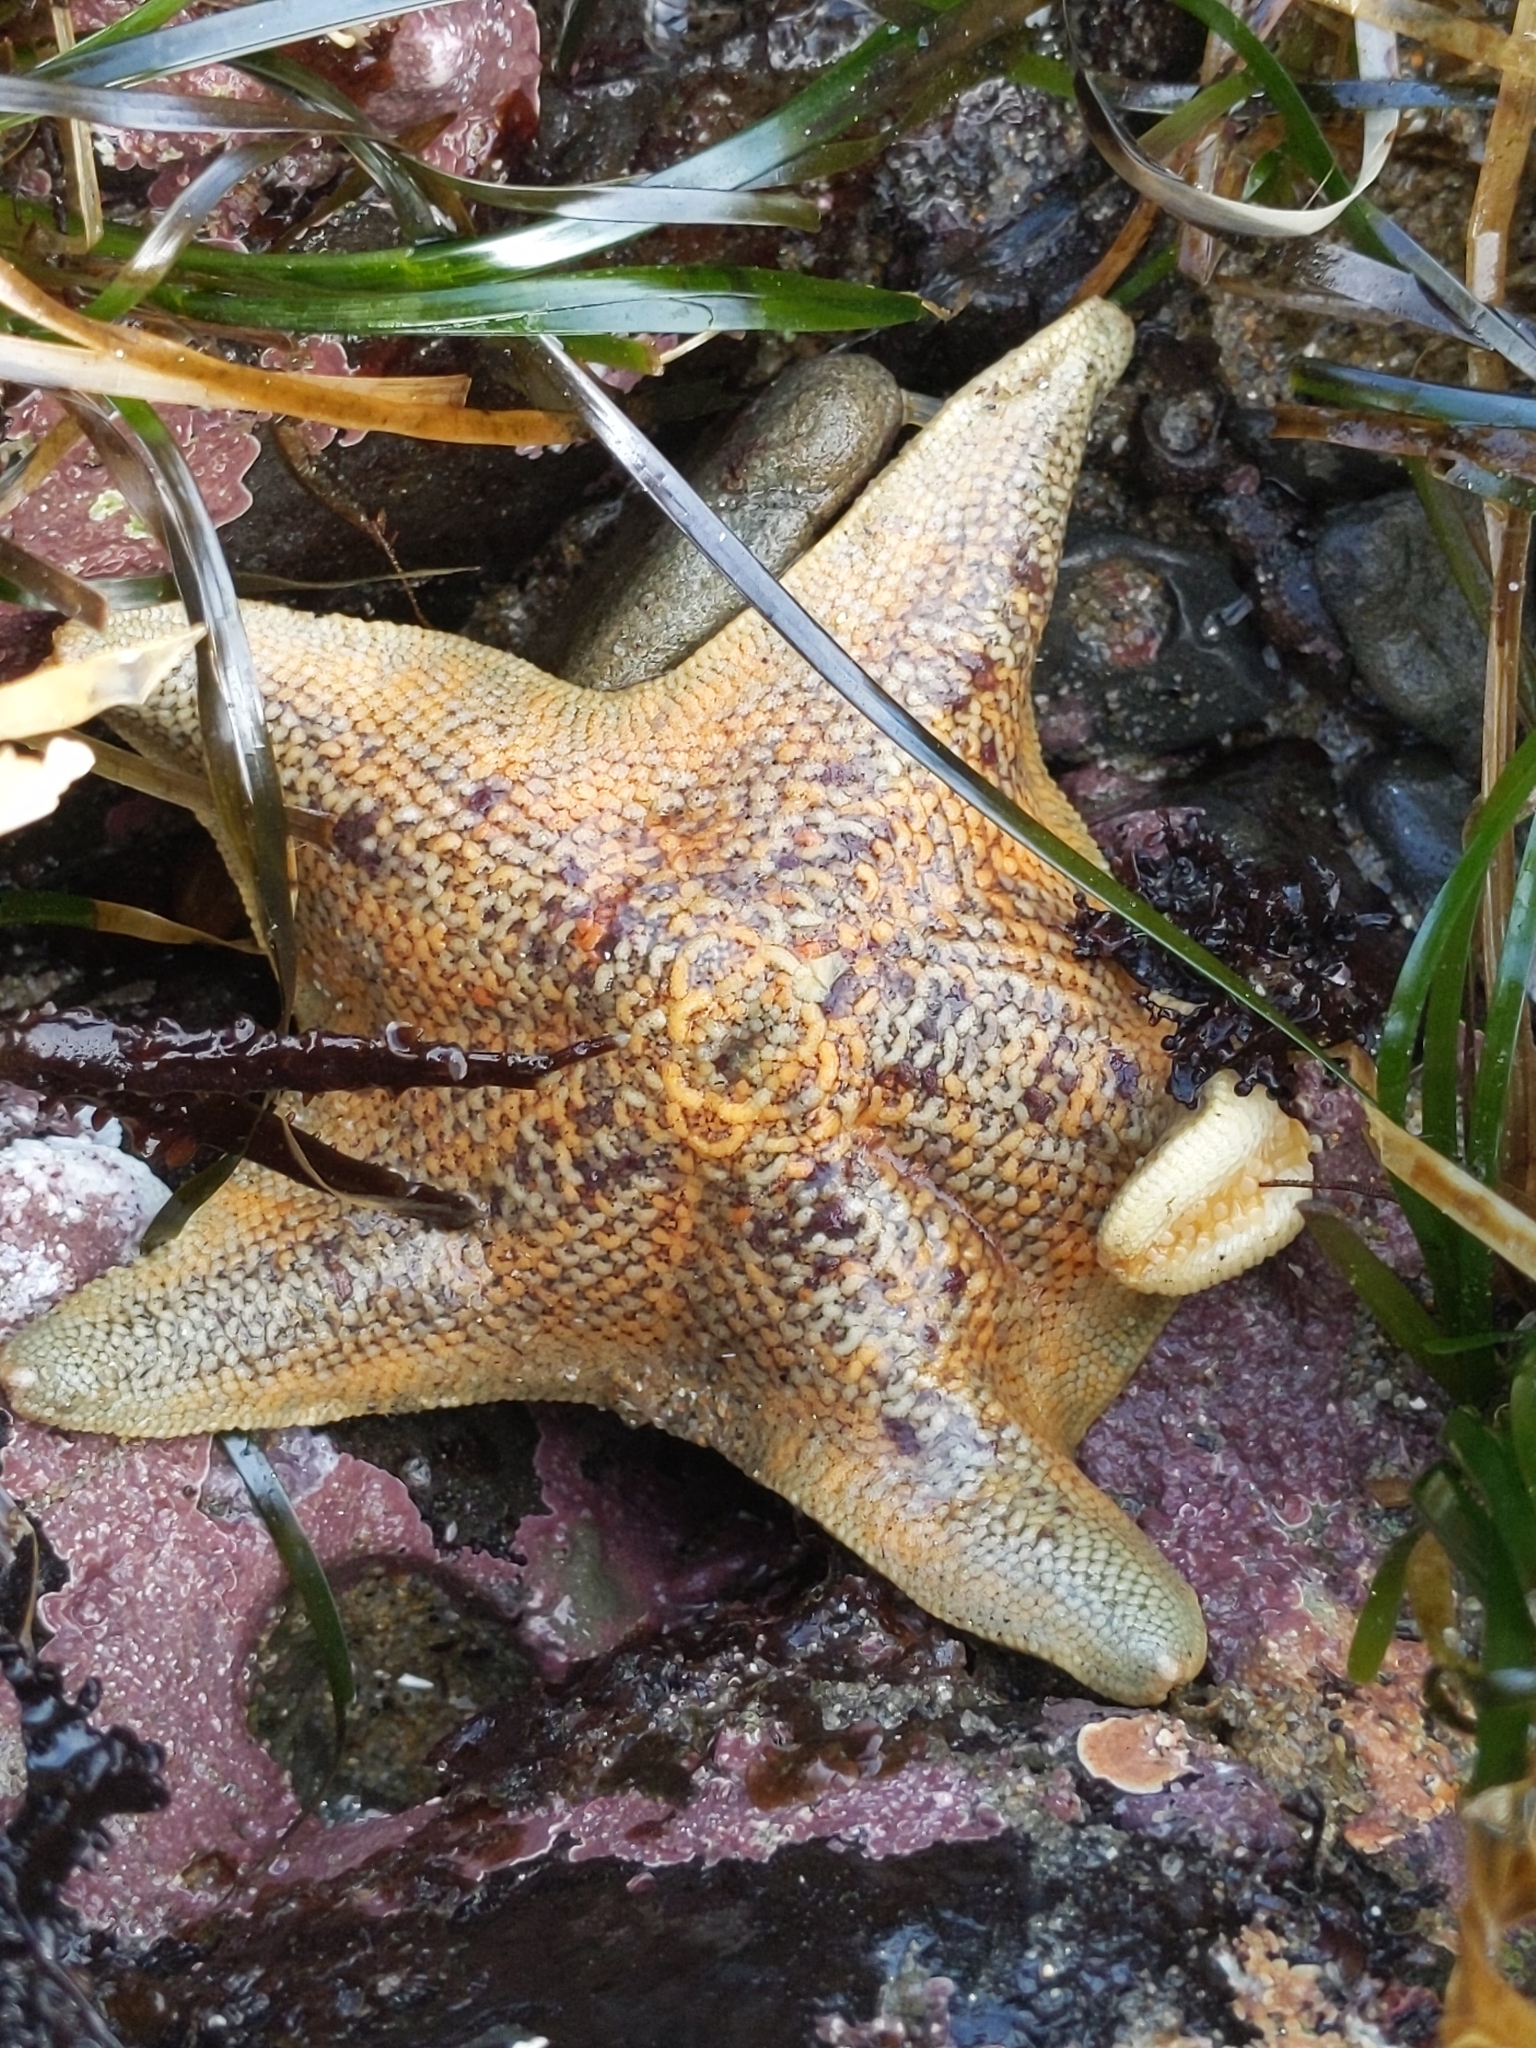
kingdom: Animalia
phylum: Echinodermata
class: Asteroidea
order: Valvatida
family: Asterinidae
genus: Patiria
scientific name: Patiria miniata
